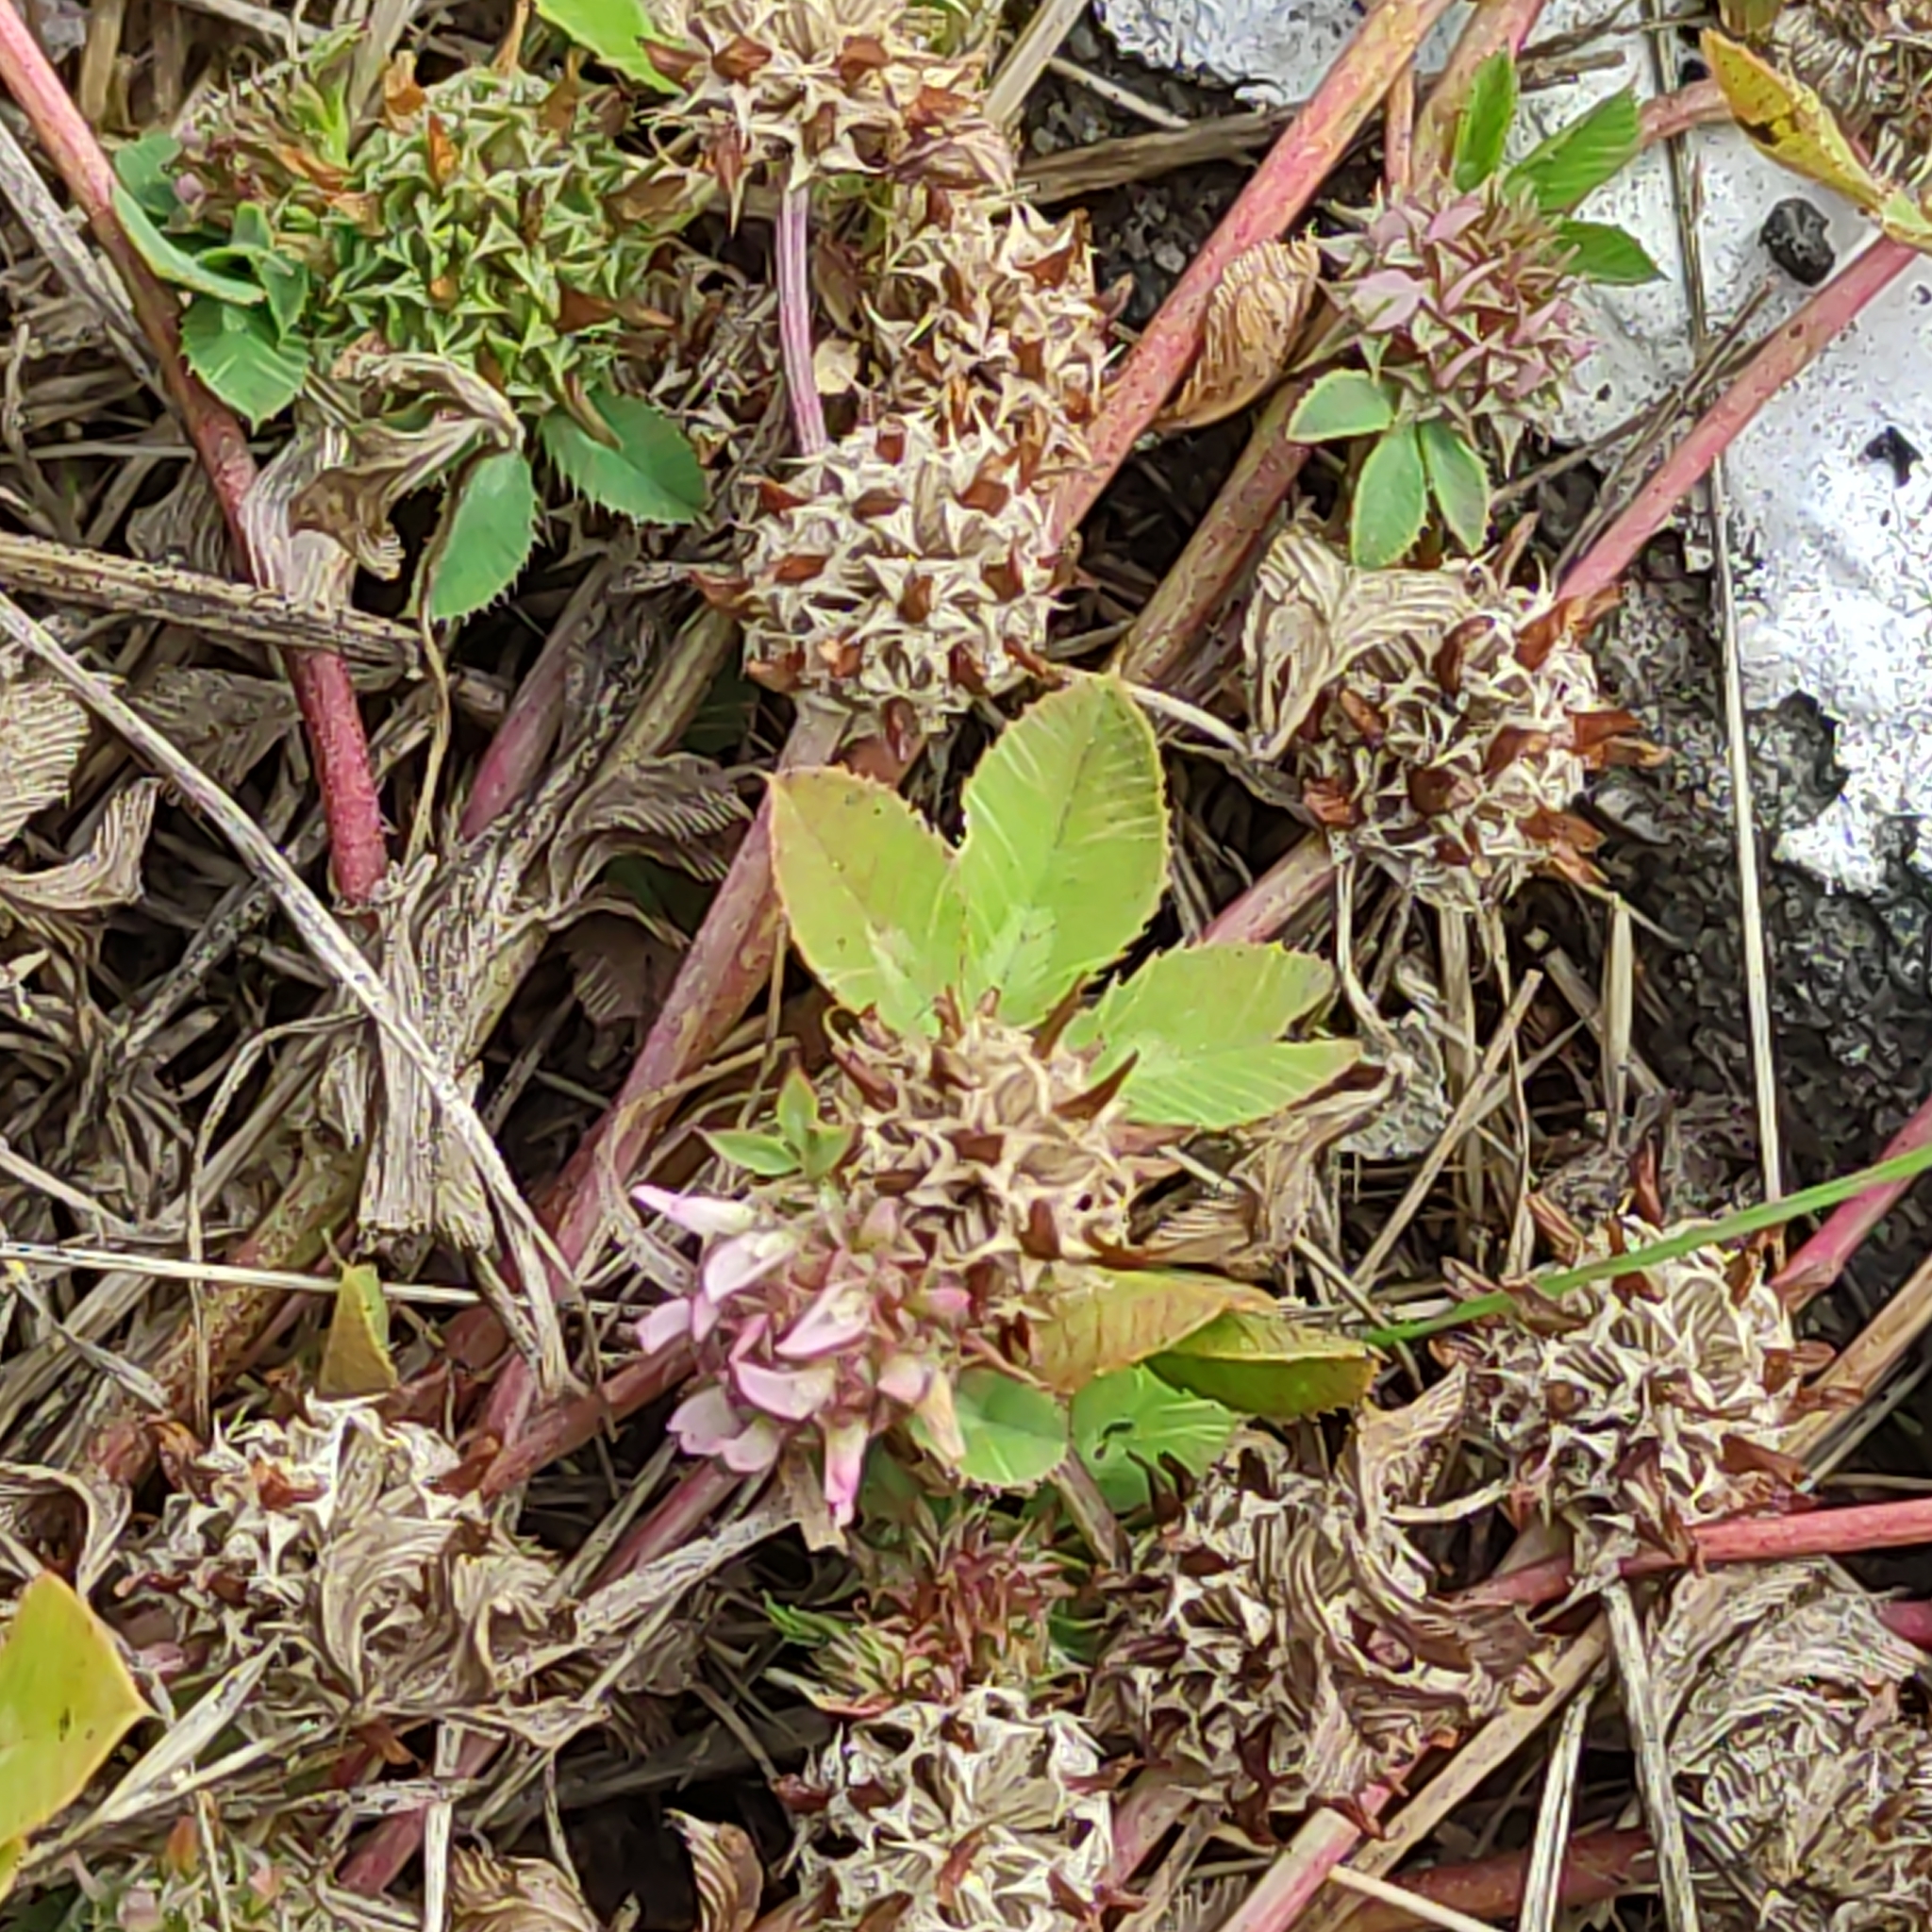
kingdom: Plantae
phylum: Tracheophyta
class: Magnoliopsida
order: Fabales
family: Fabaceae
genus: Trifolium
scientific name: Trifolium glomeratum
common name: Clustered clover
